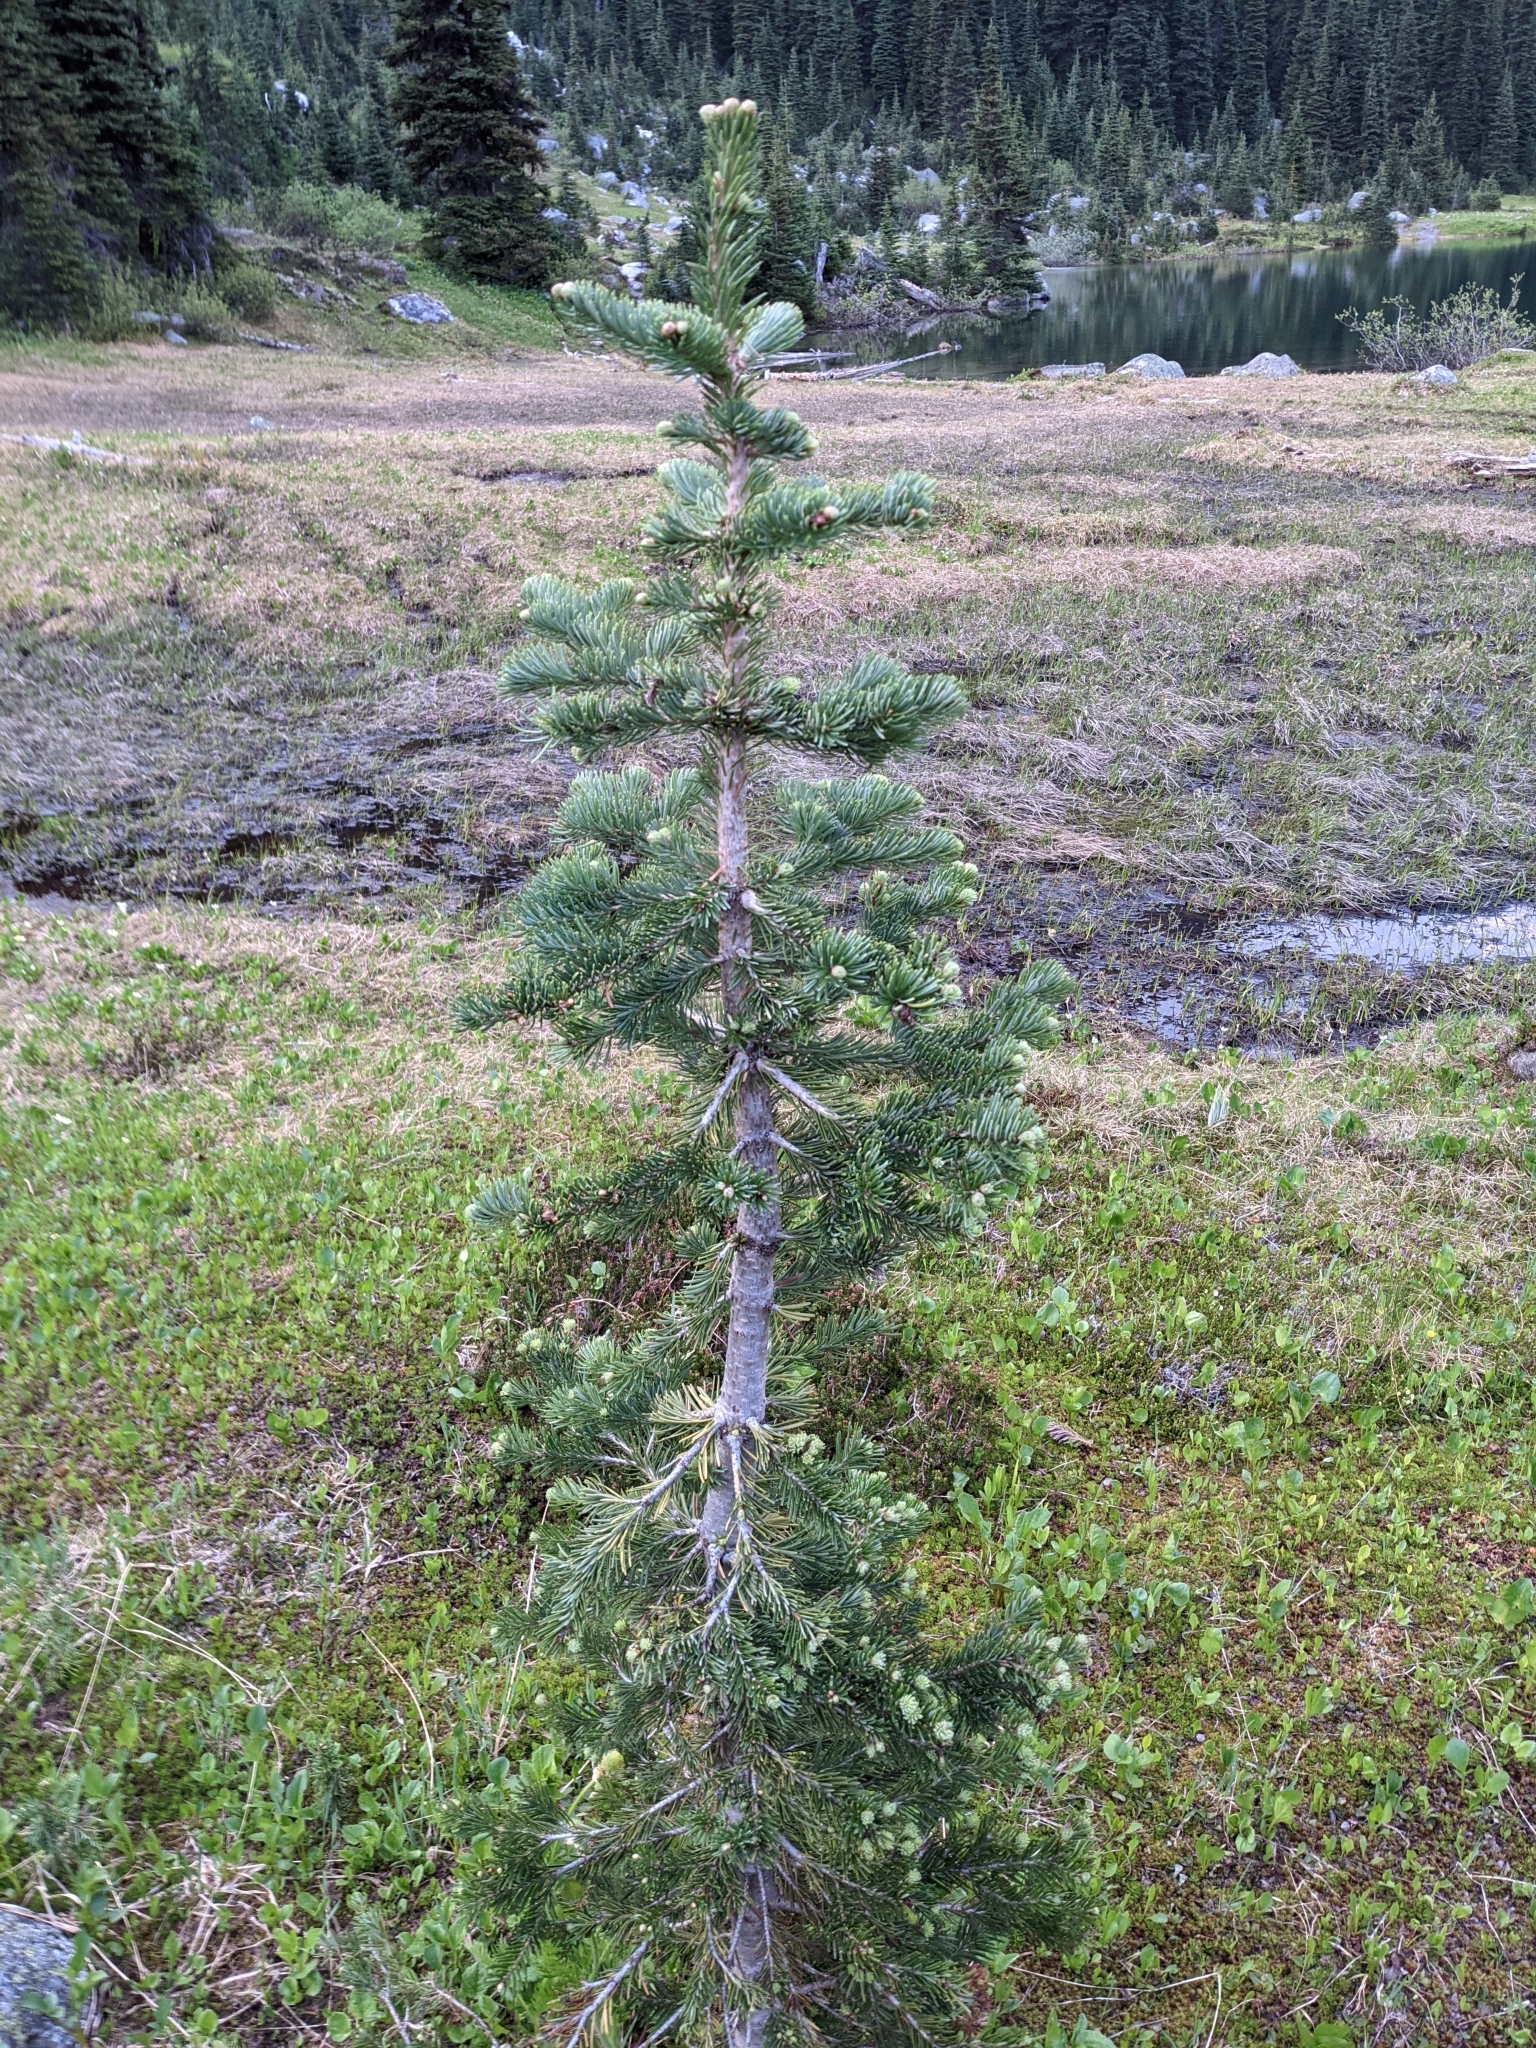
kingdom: Plantae
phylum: Tracheophyta
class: Pinopsida
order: Pinales
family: Pinaceae
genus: Abies
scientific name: Abies lasiocarpa
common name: Subalpine fir
